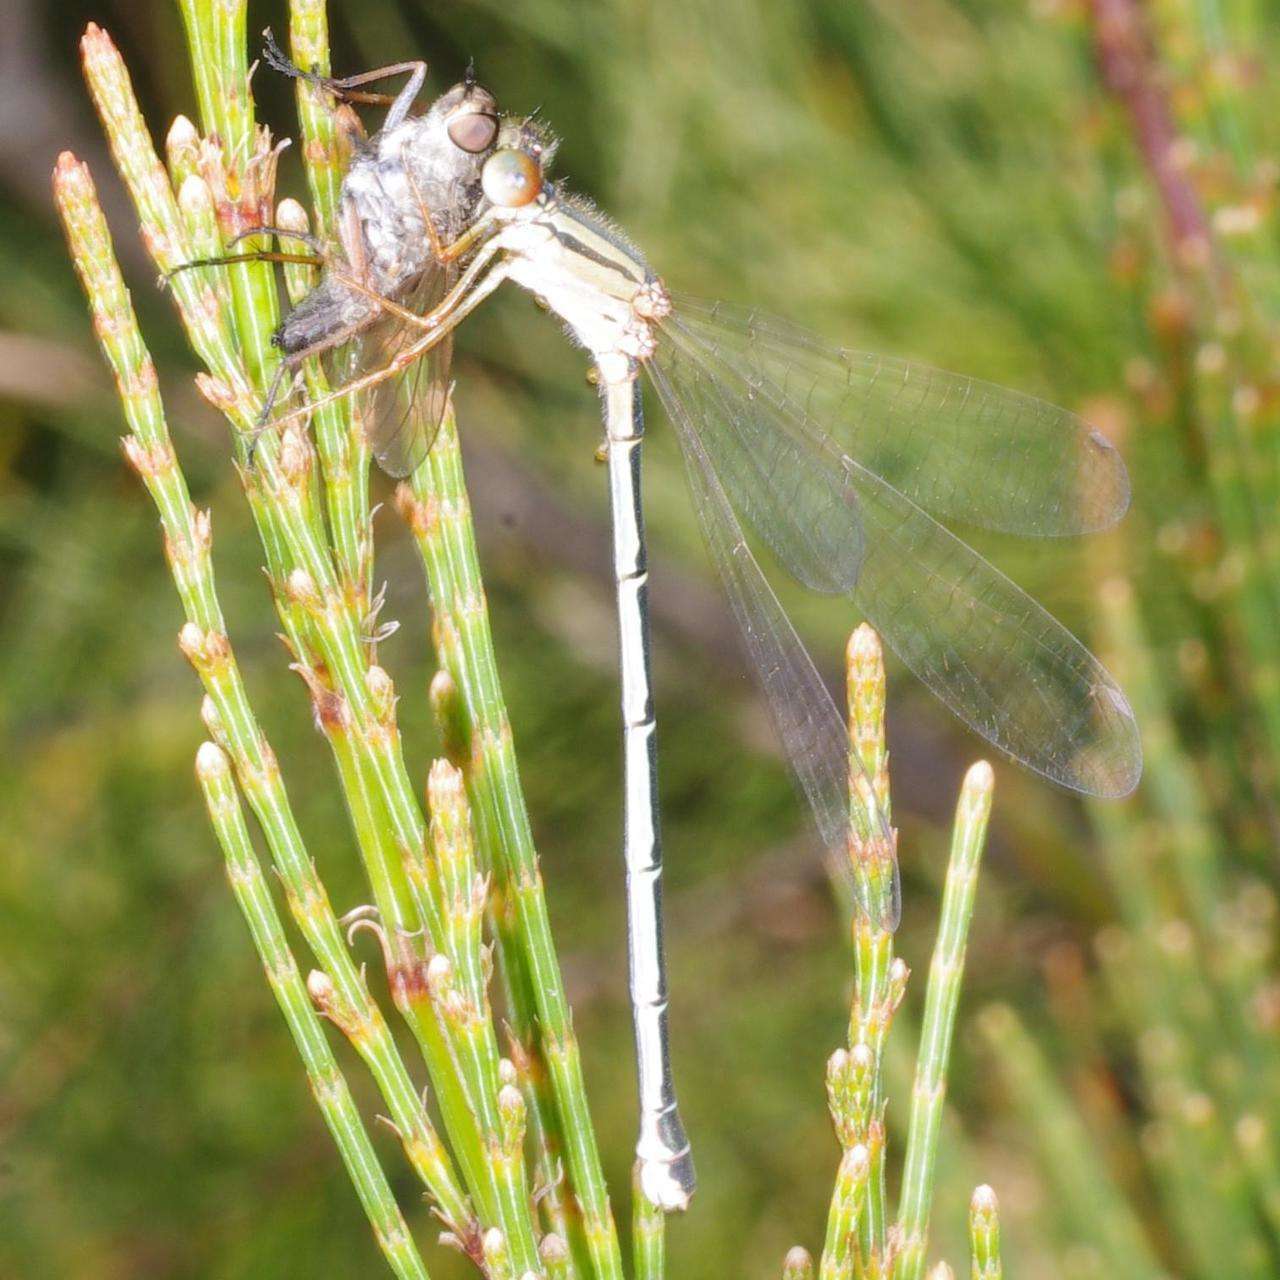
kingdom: Animalia
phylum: Arthropoda
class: Insecta
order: Odonata
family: Coenagrionidae
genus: Xanthagrion
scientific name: Xanthagrion erythroneurum
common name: Red and blue damsel
